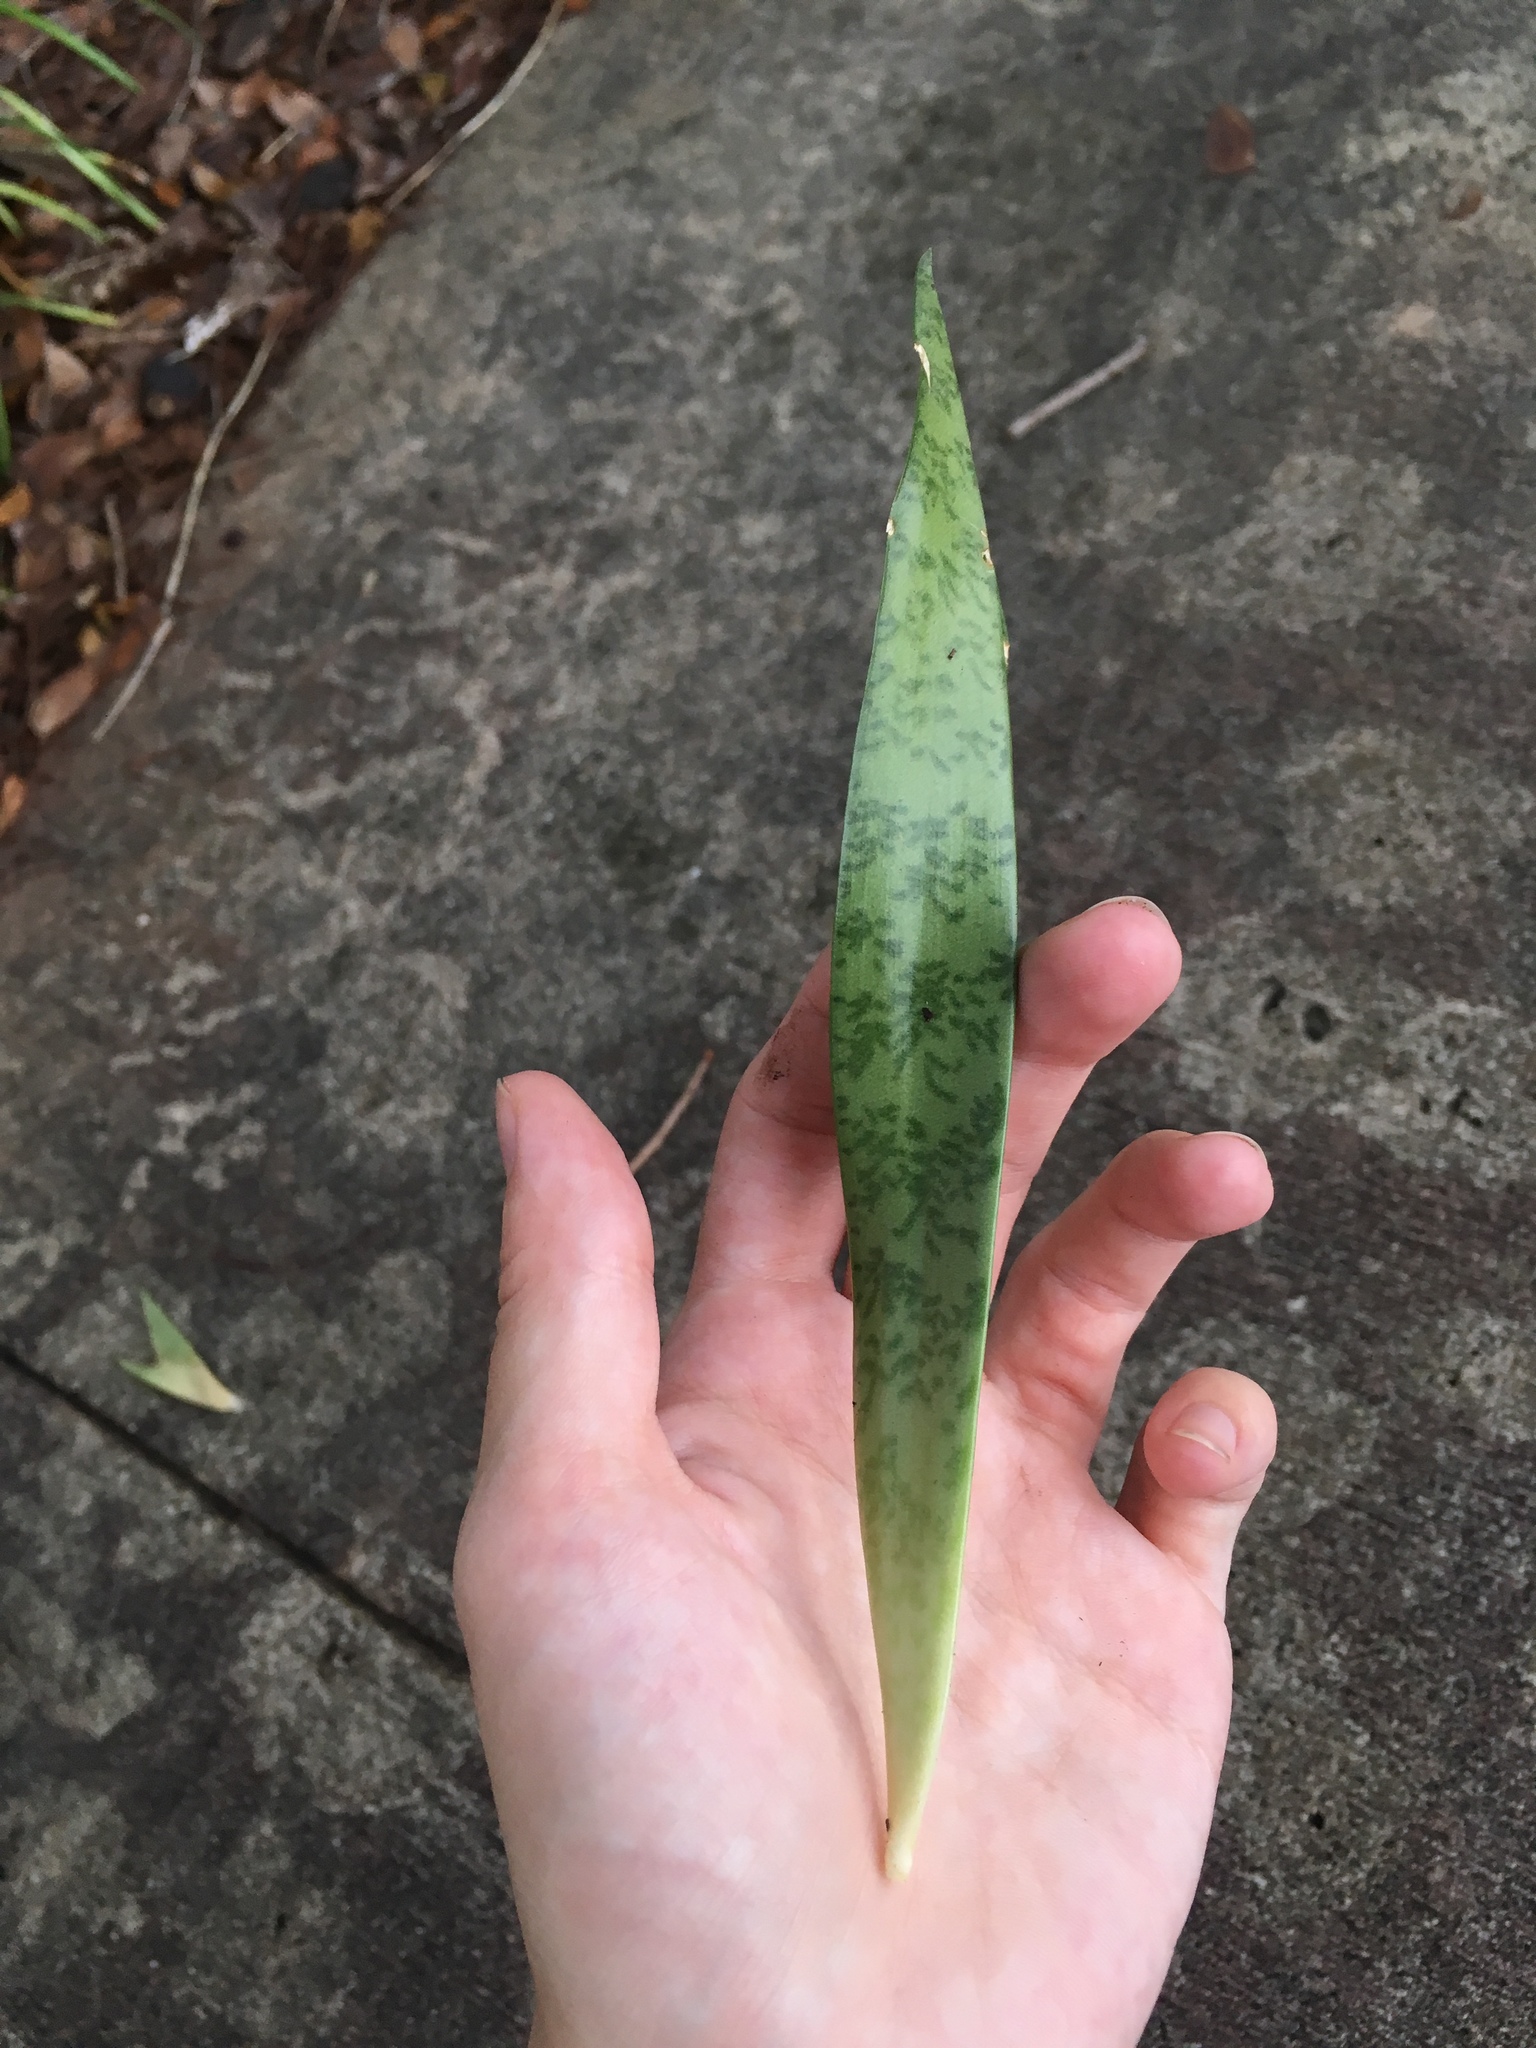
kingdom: Plantae
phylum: Tracheophyta
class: Liliopsida
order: Asparagales
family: Asparagaceae
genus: Dracaena
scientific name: Dracaena hyacinthoides
